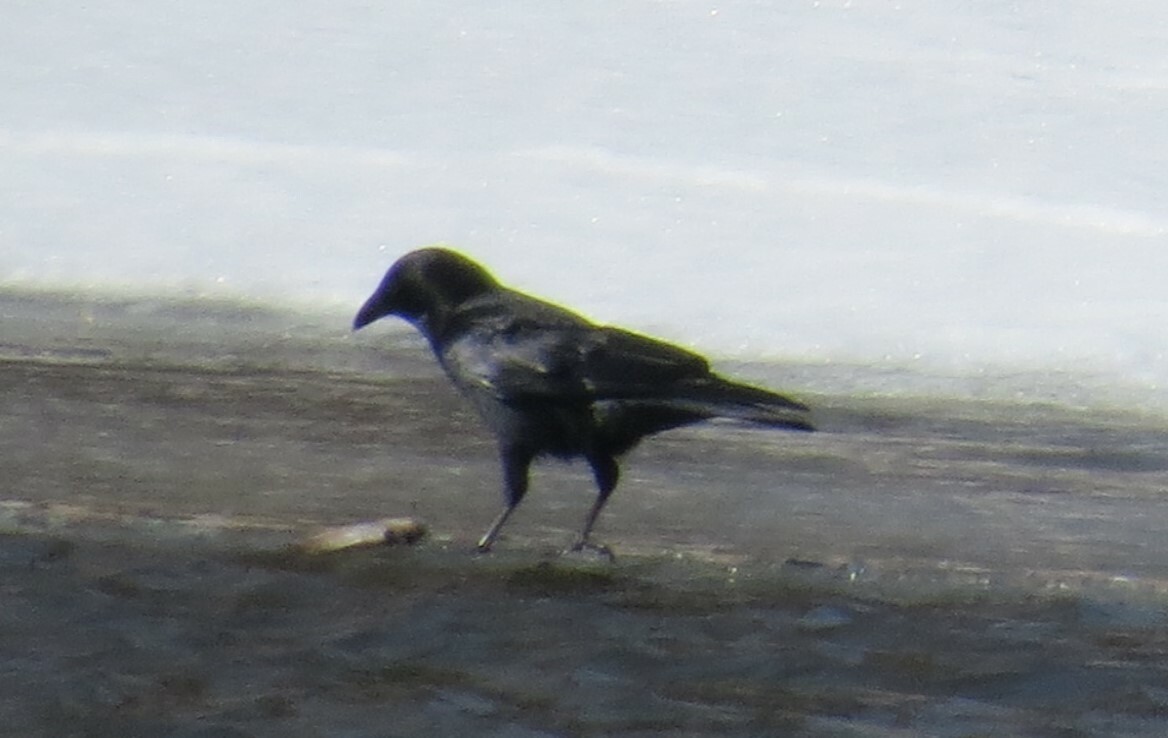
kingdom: Animalia
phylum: Chordata
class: Aves
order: Passeriformes
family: Corvidae
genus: Corvus
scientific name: Corvus brachyrhynchos
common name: American crow
